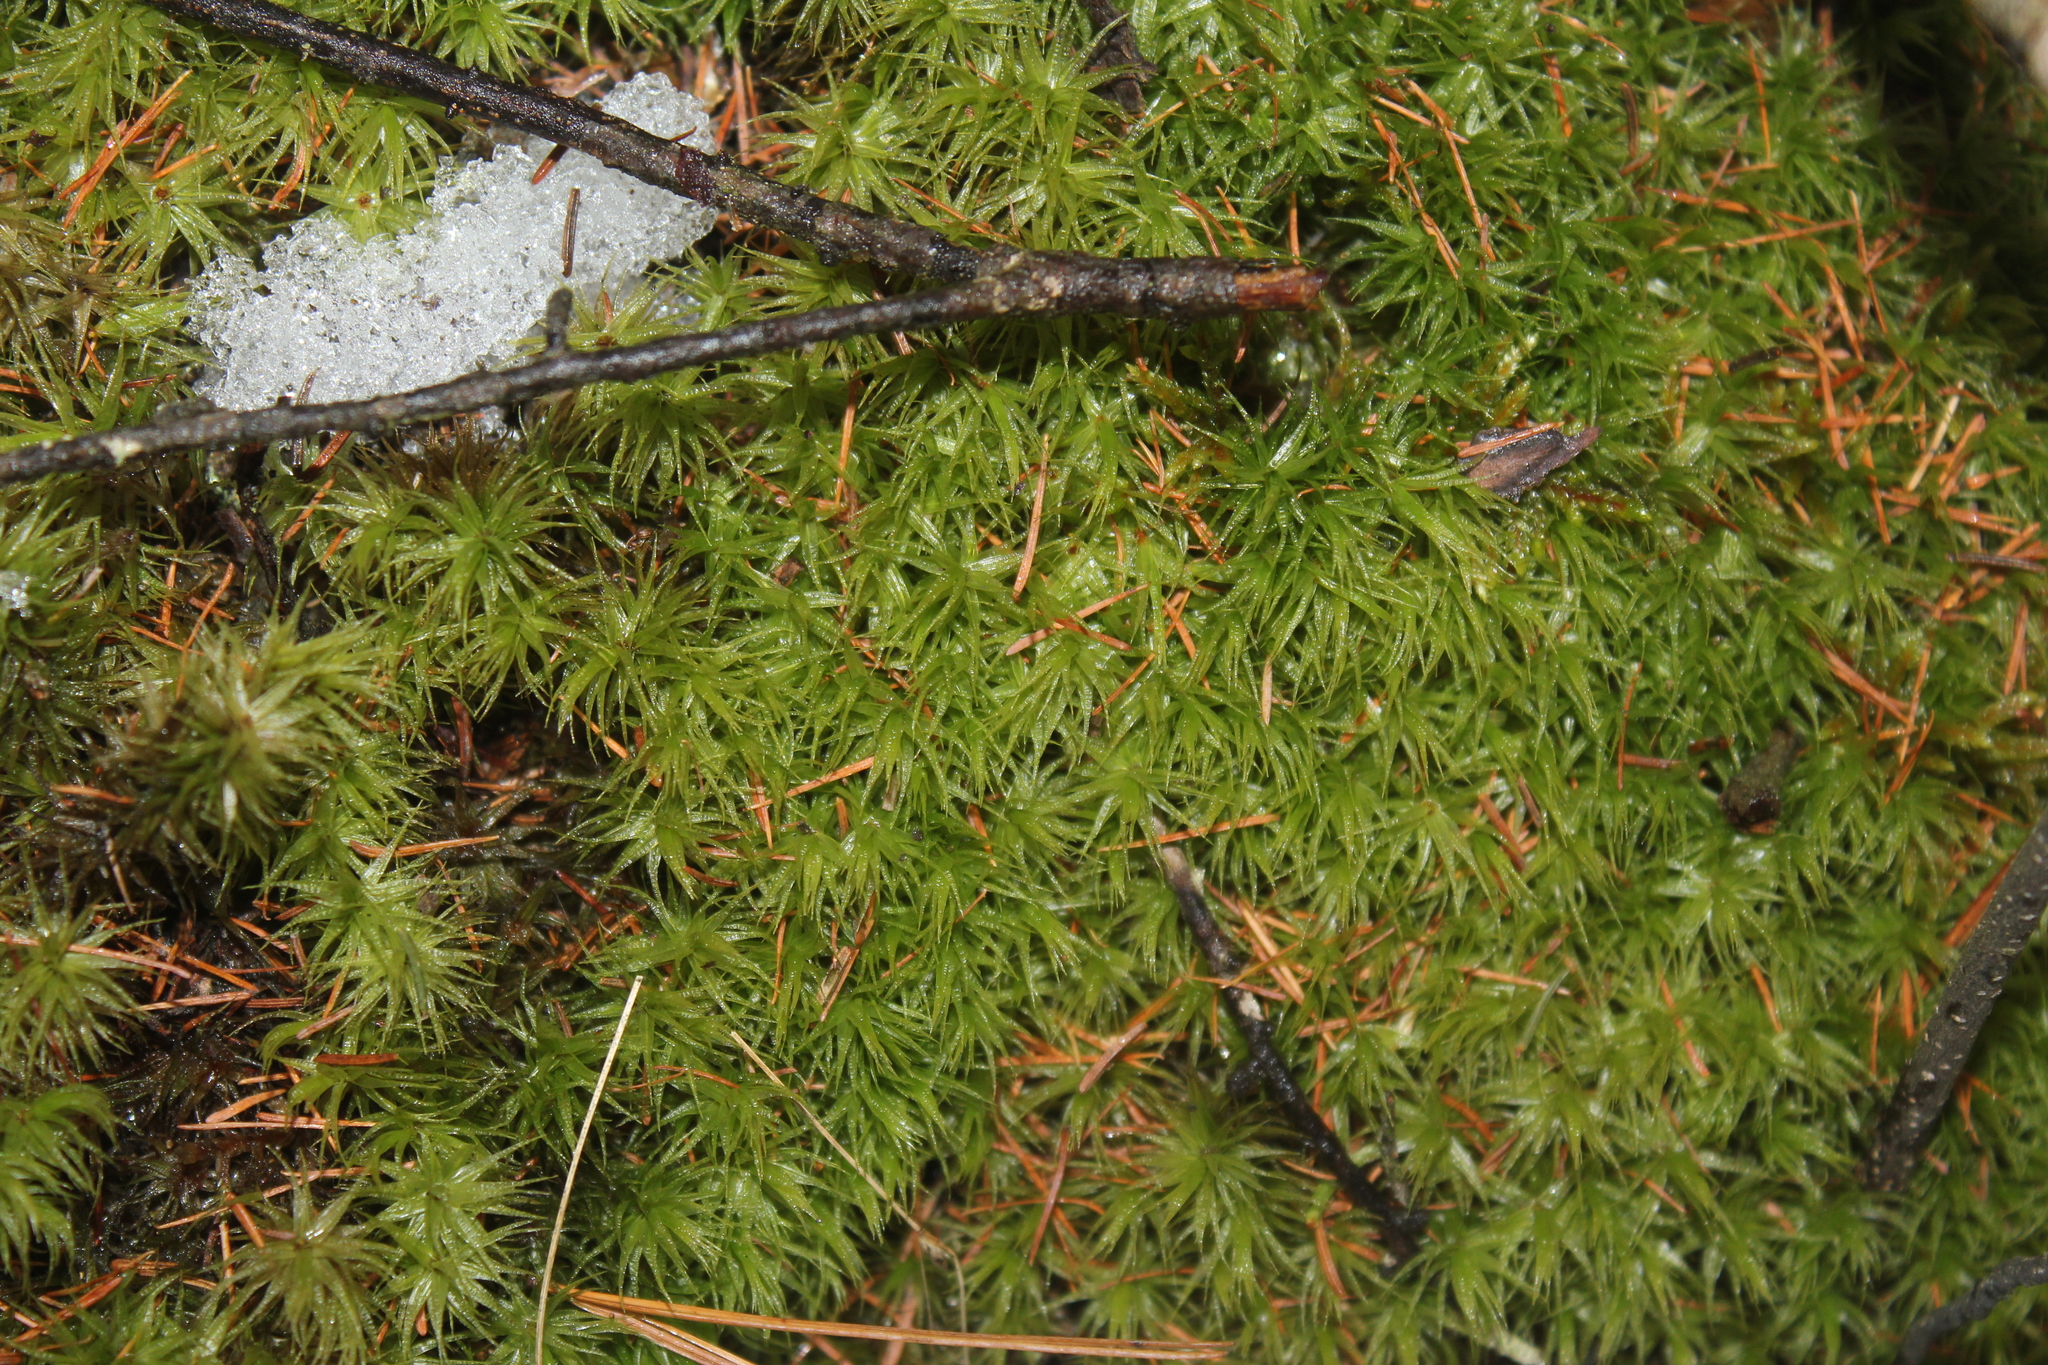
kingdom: Plantae
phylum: Bryophyta
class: Bryopsida
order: Dicranales
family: Dicranaceae
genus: Dicranum
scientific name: Dicranum polysetum
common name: Rugose fork-moss
